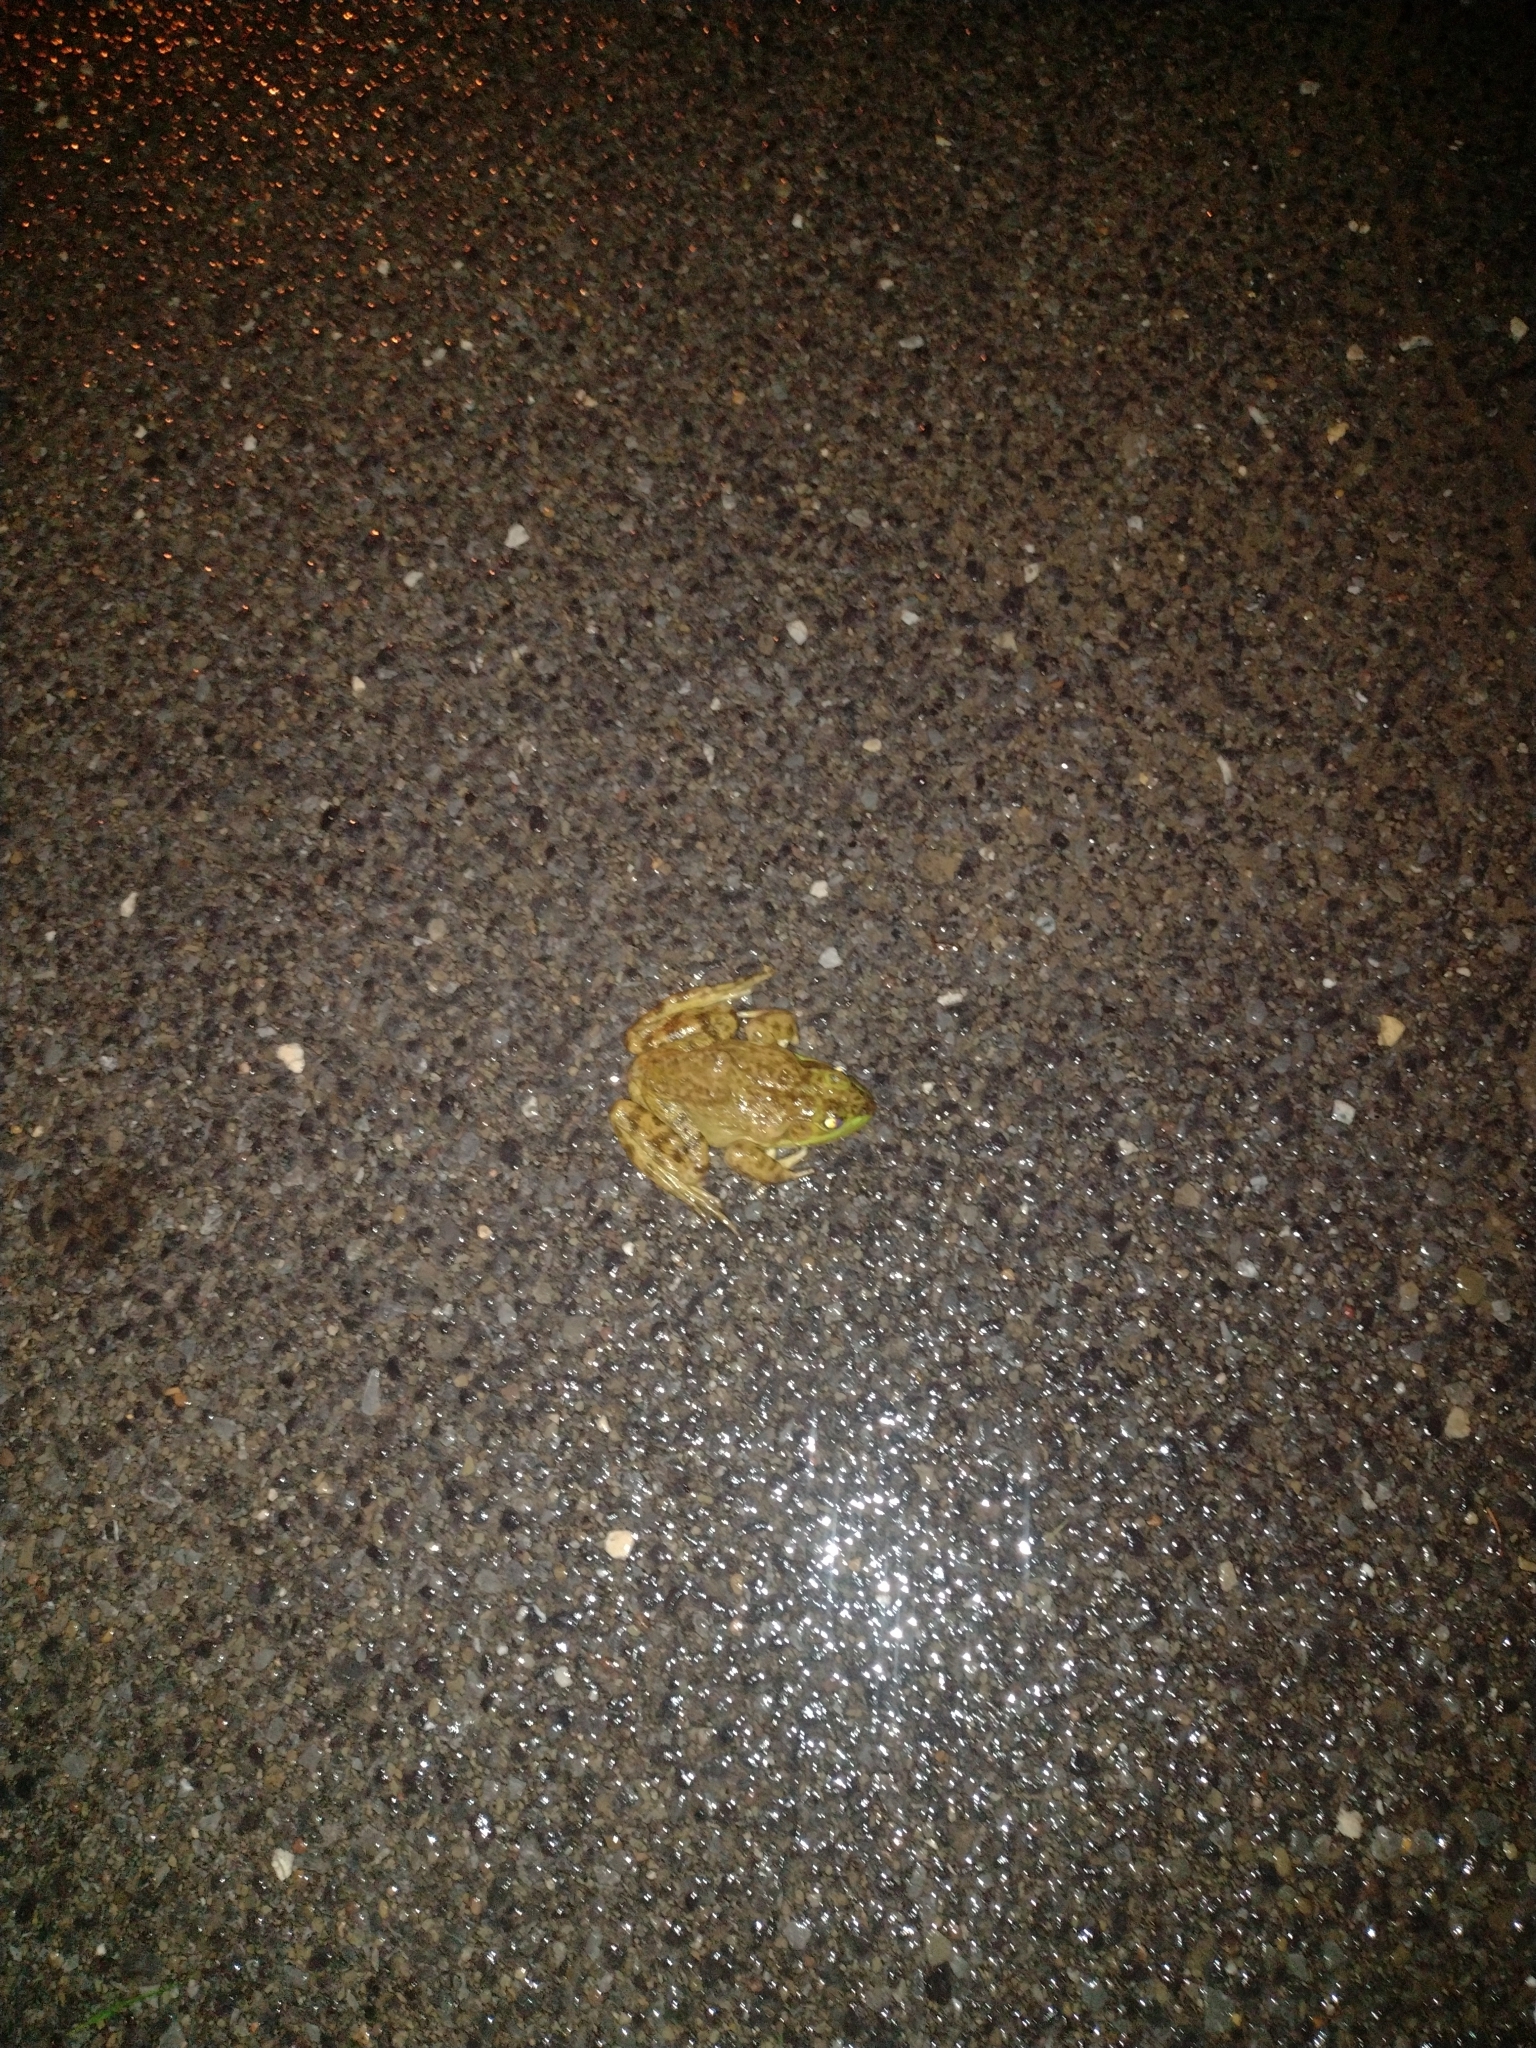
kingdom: Animalia
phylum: Chordata
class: Amphibia
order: Anura
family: Ranidae
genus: Lithobates
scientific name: Lithobates catesbeianus
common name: American bullfrog
